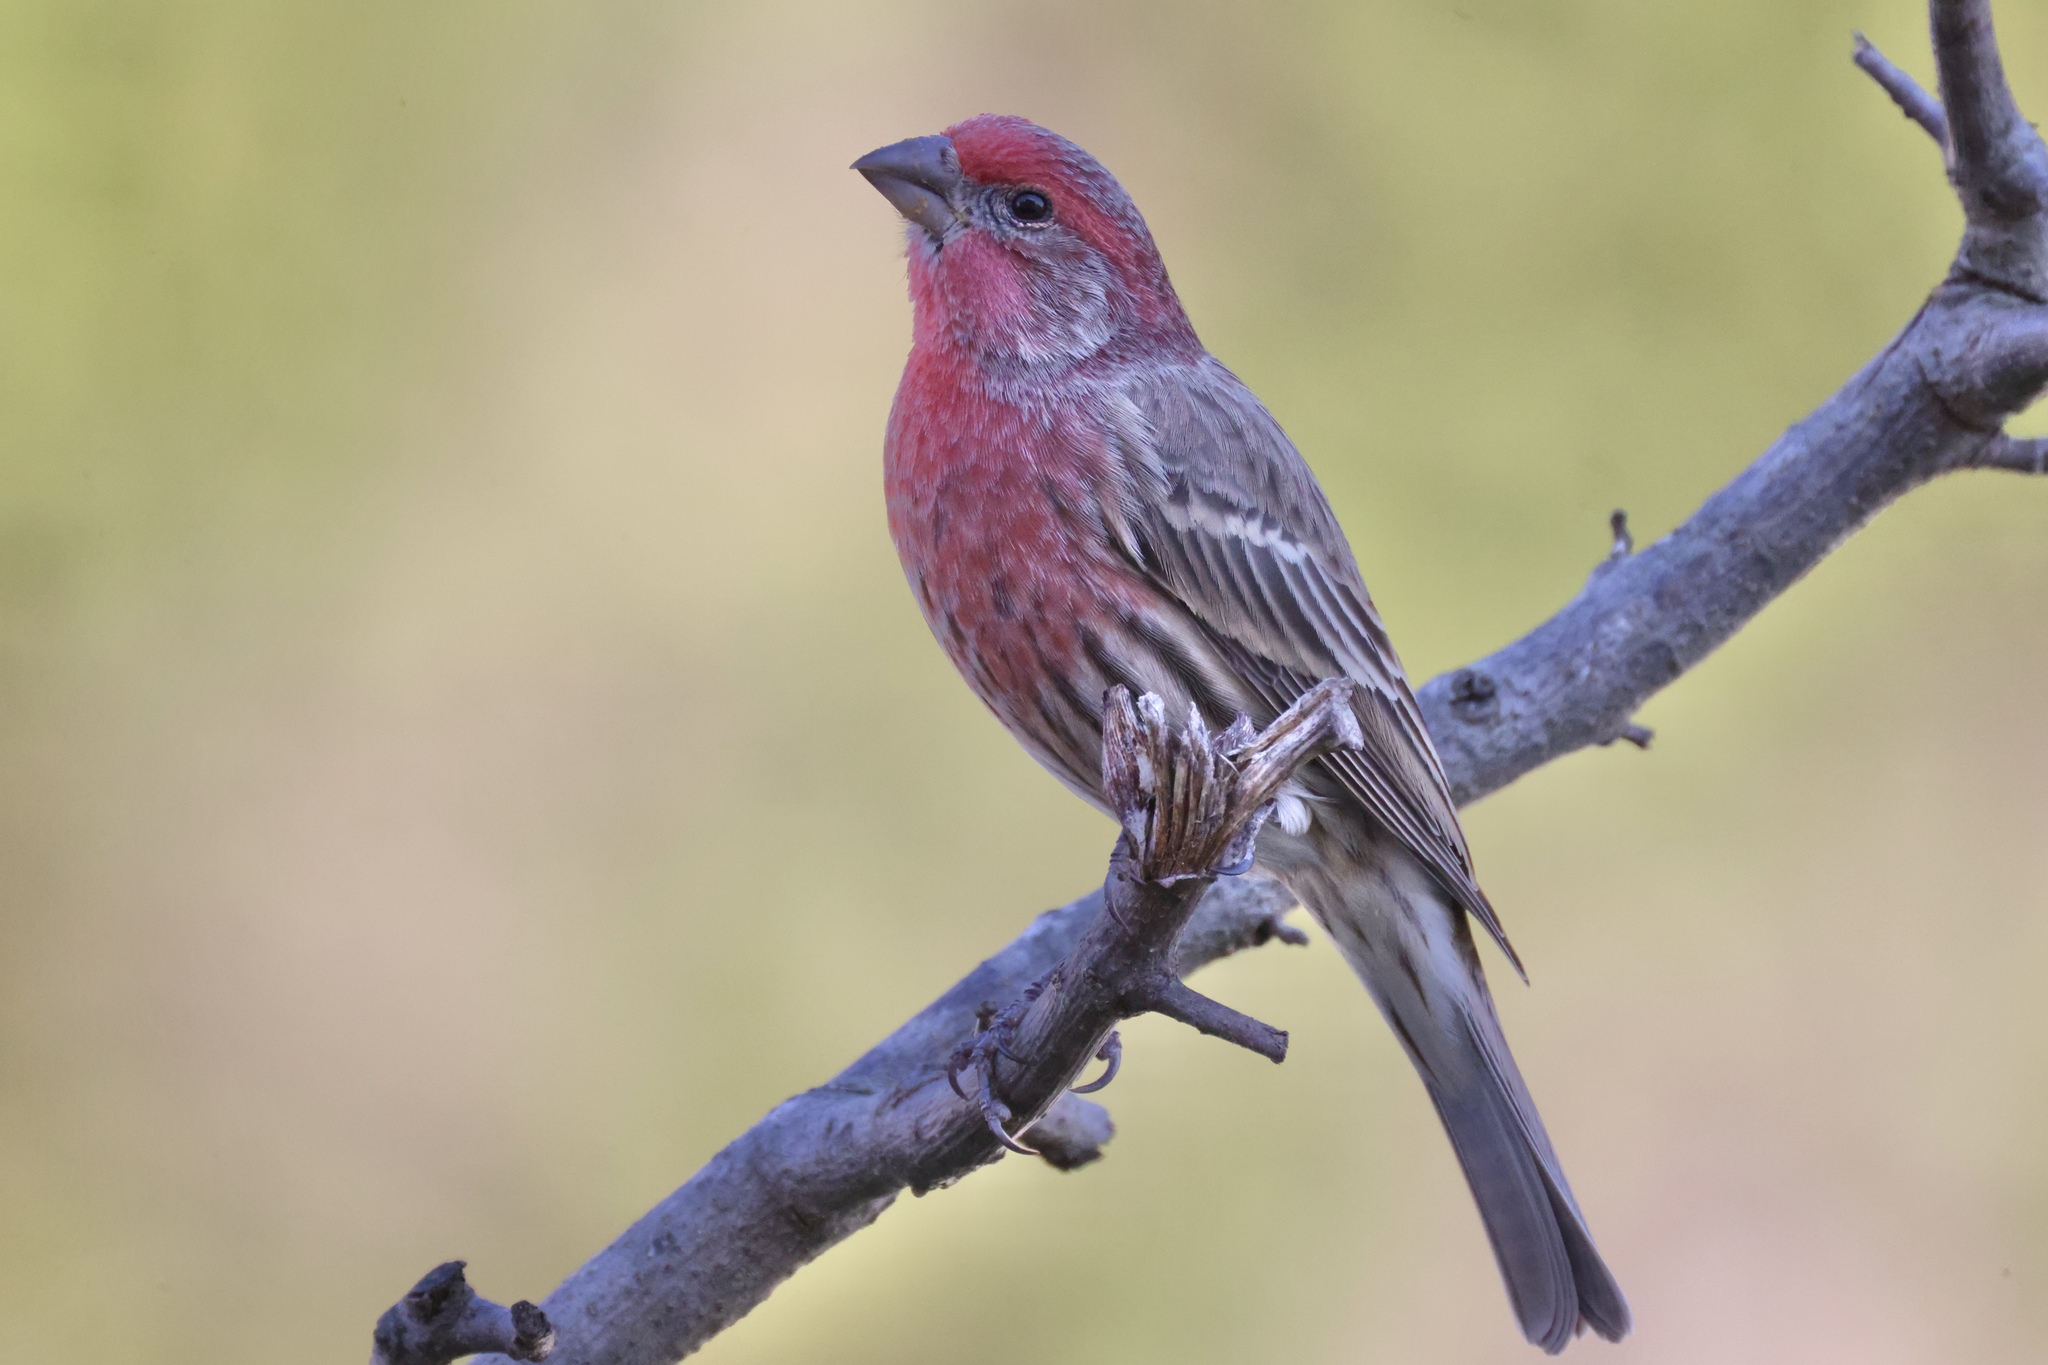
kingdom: Animalia
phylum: Chordata
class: Aves
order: Passeriformes
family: Fringillidae
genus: Haemorhous
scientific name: Haemorhous mexicanus
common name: House finch
